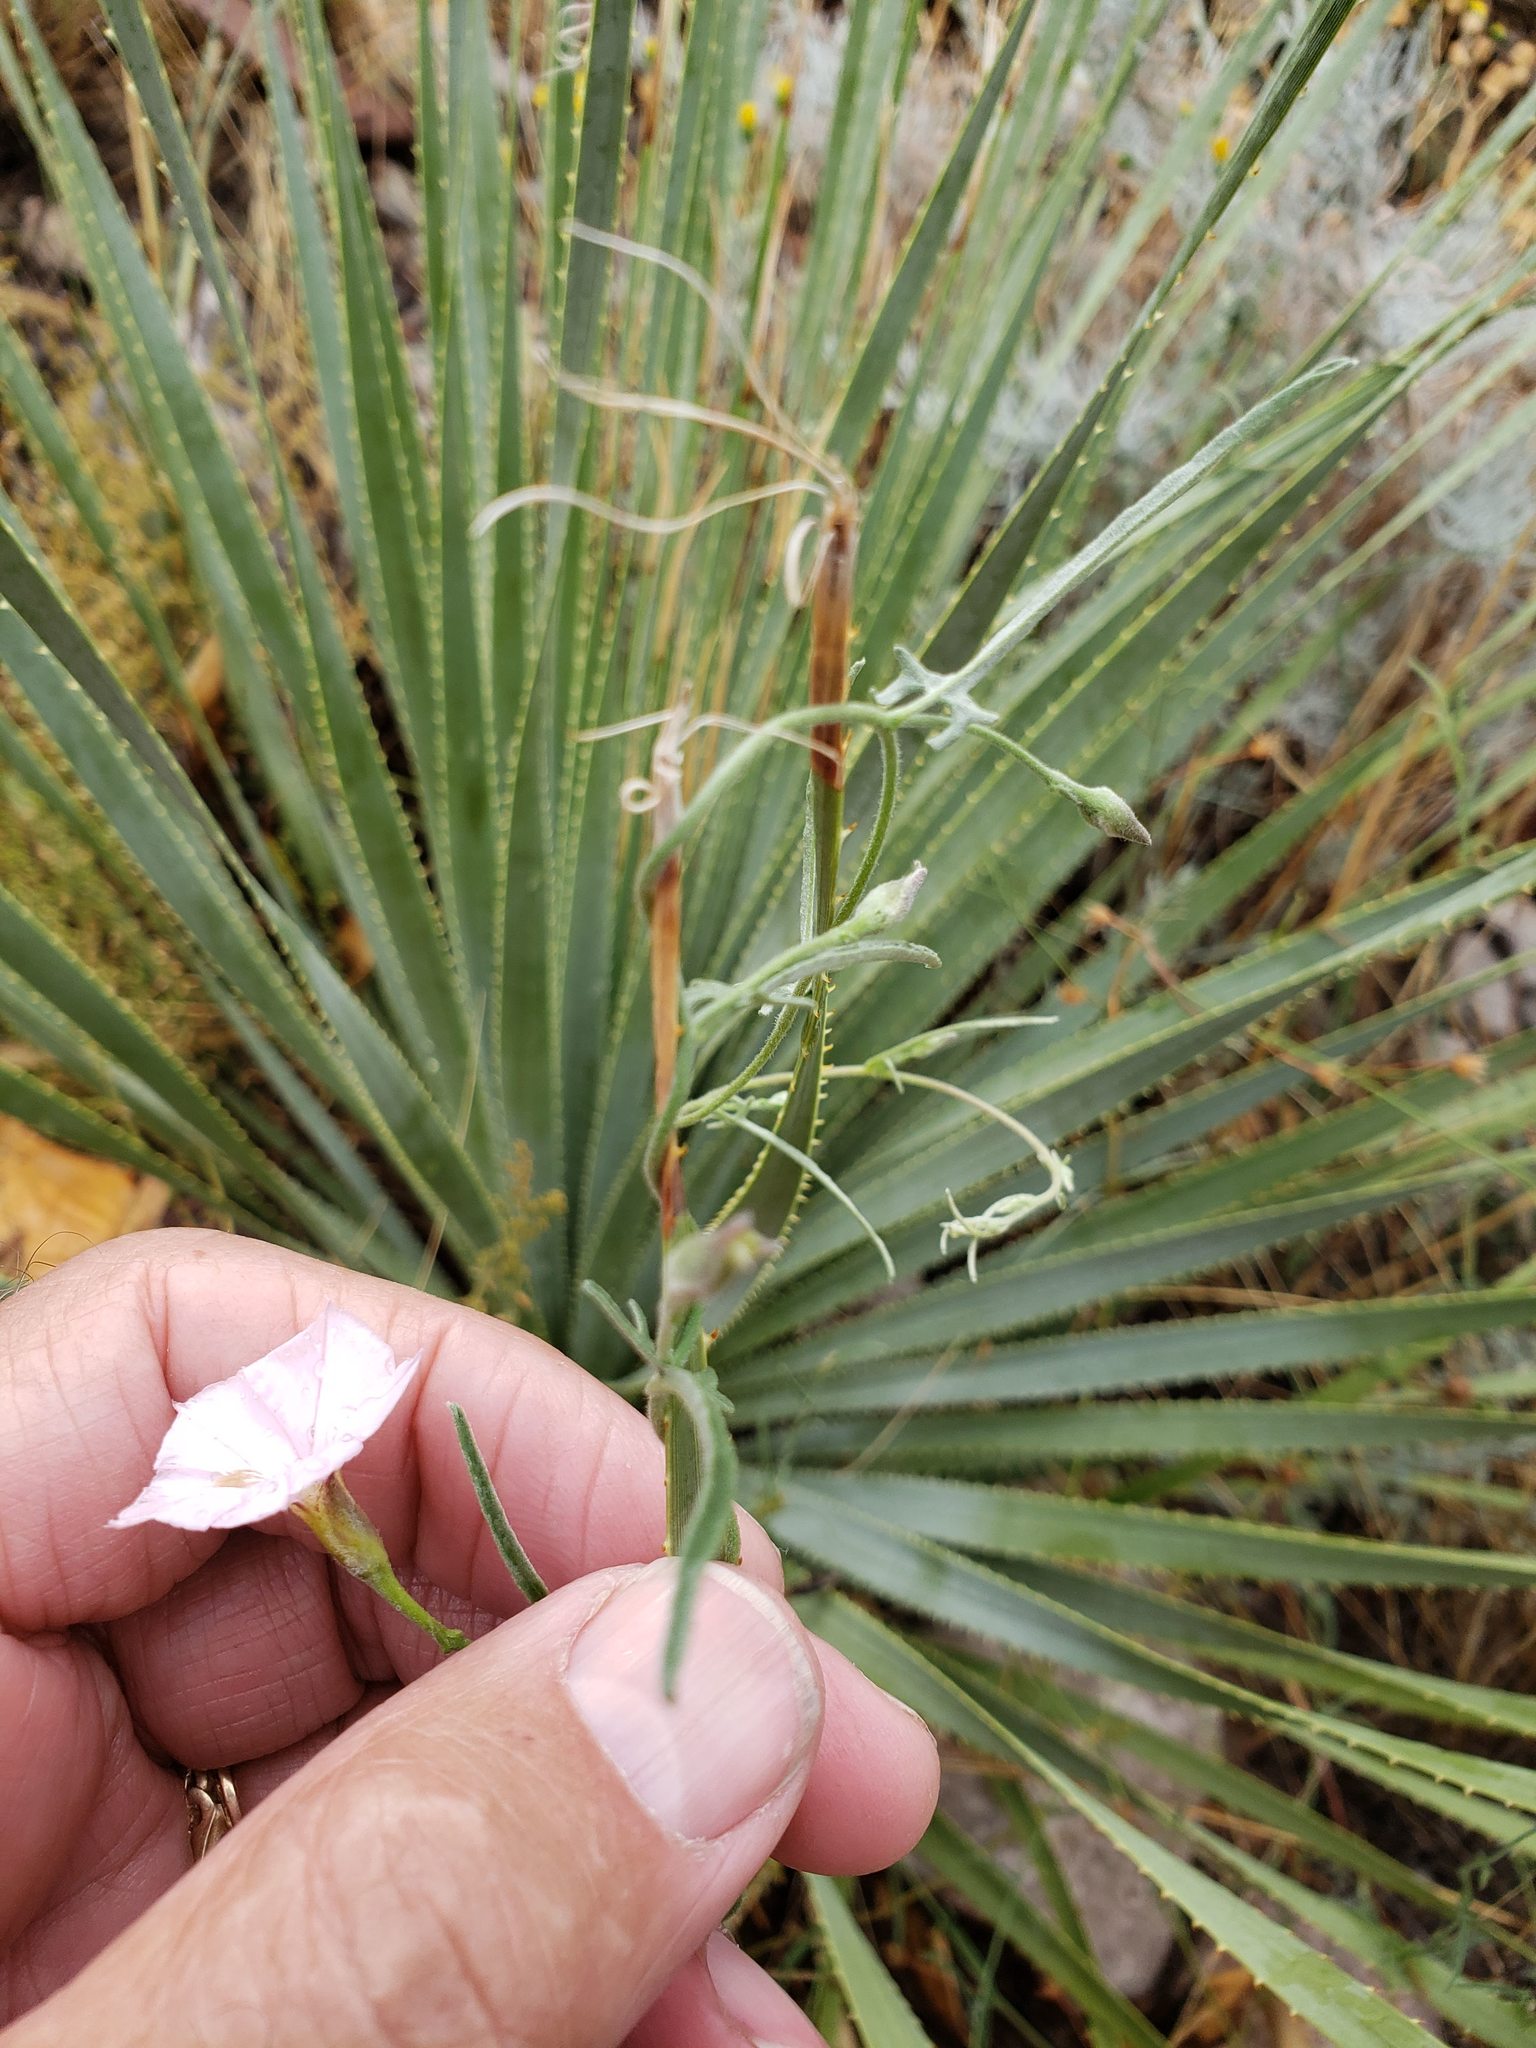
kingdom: Plantae
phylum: Tracheophyta
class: Magnoliopsida
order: Solanales
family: Convolvulaceae
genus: Convolvulus
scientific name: Convolvulus equitans
